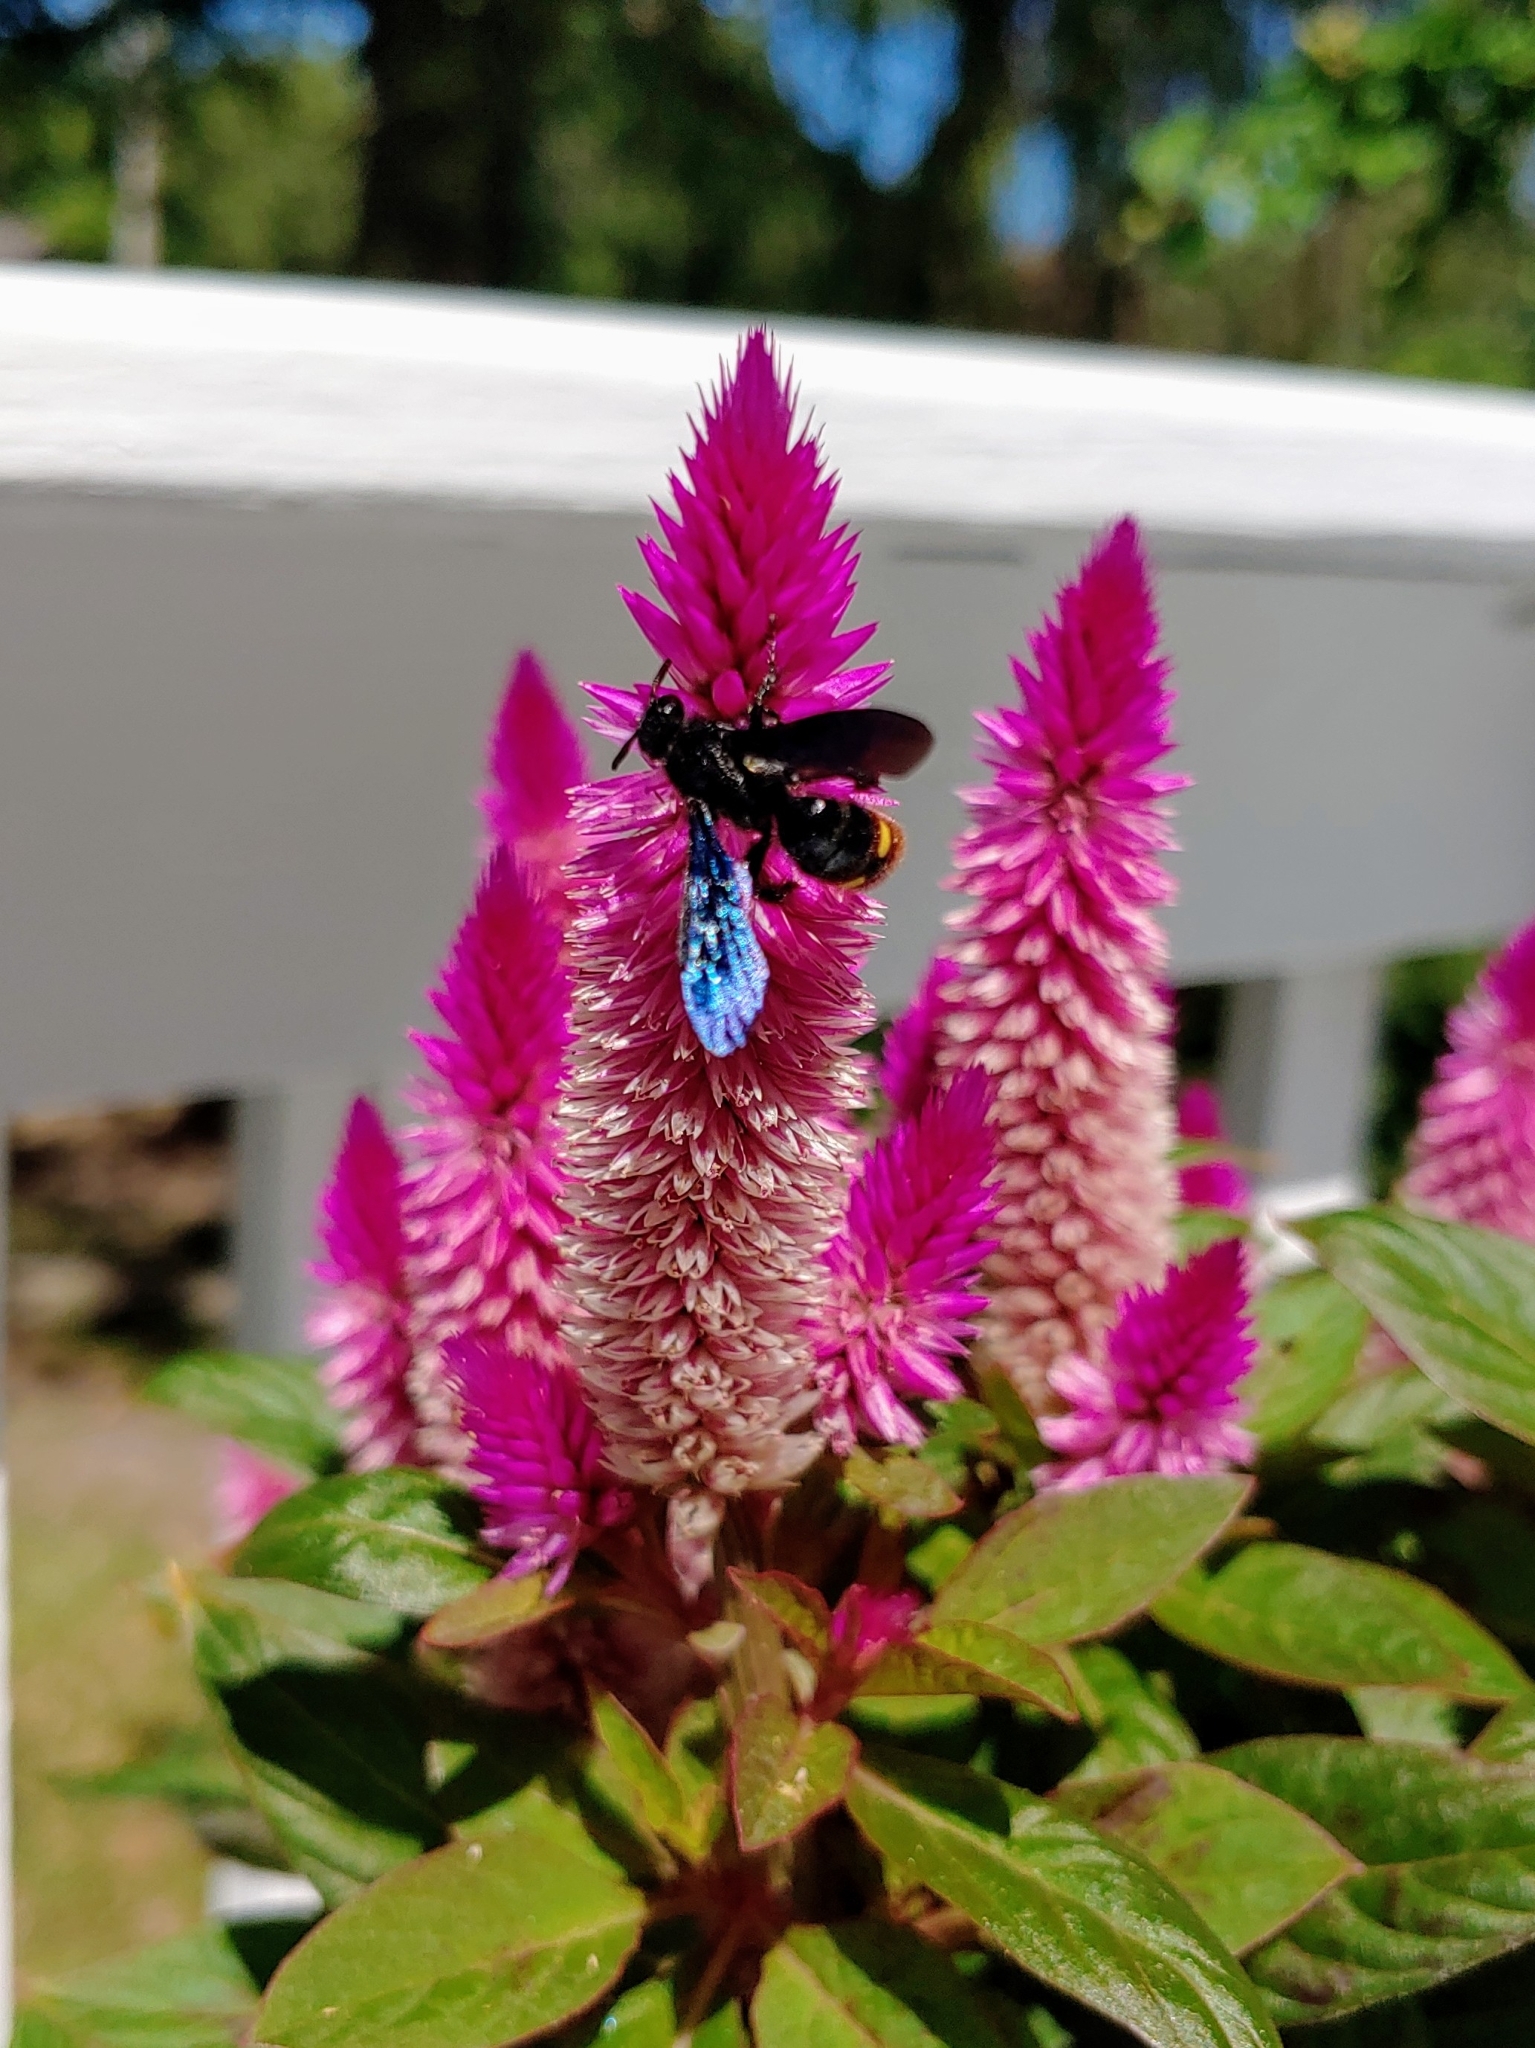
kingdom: Animalia
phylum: Arthropoda
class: Insecta
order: Hymenoptera
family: Scoliidae
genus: Scolia
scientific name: Scolia dubia
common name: Blue-winged scoliid wasp
